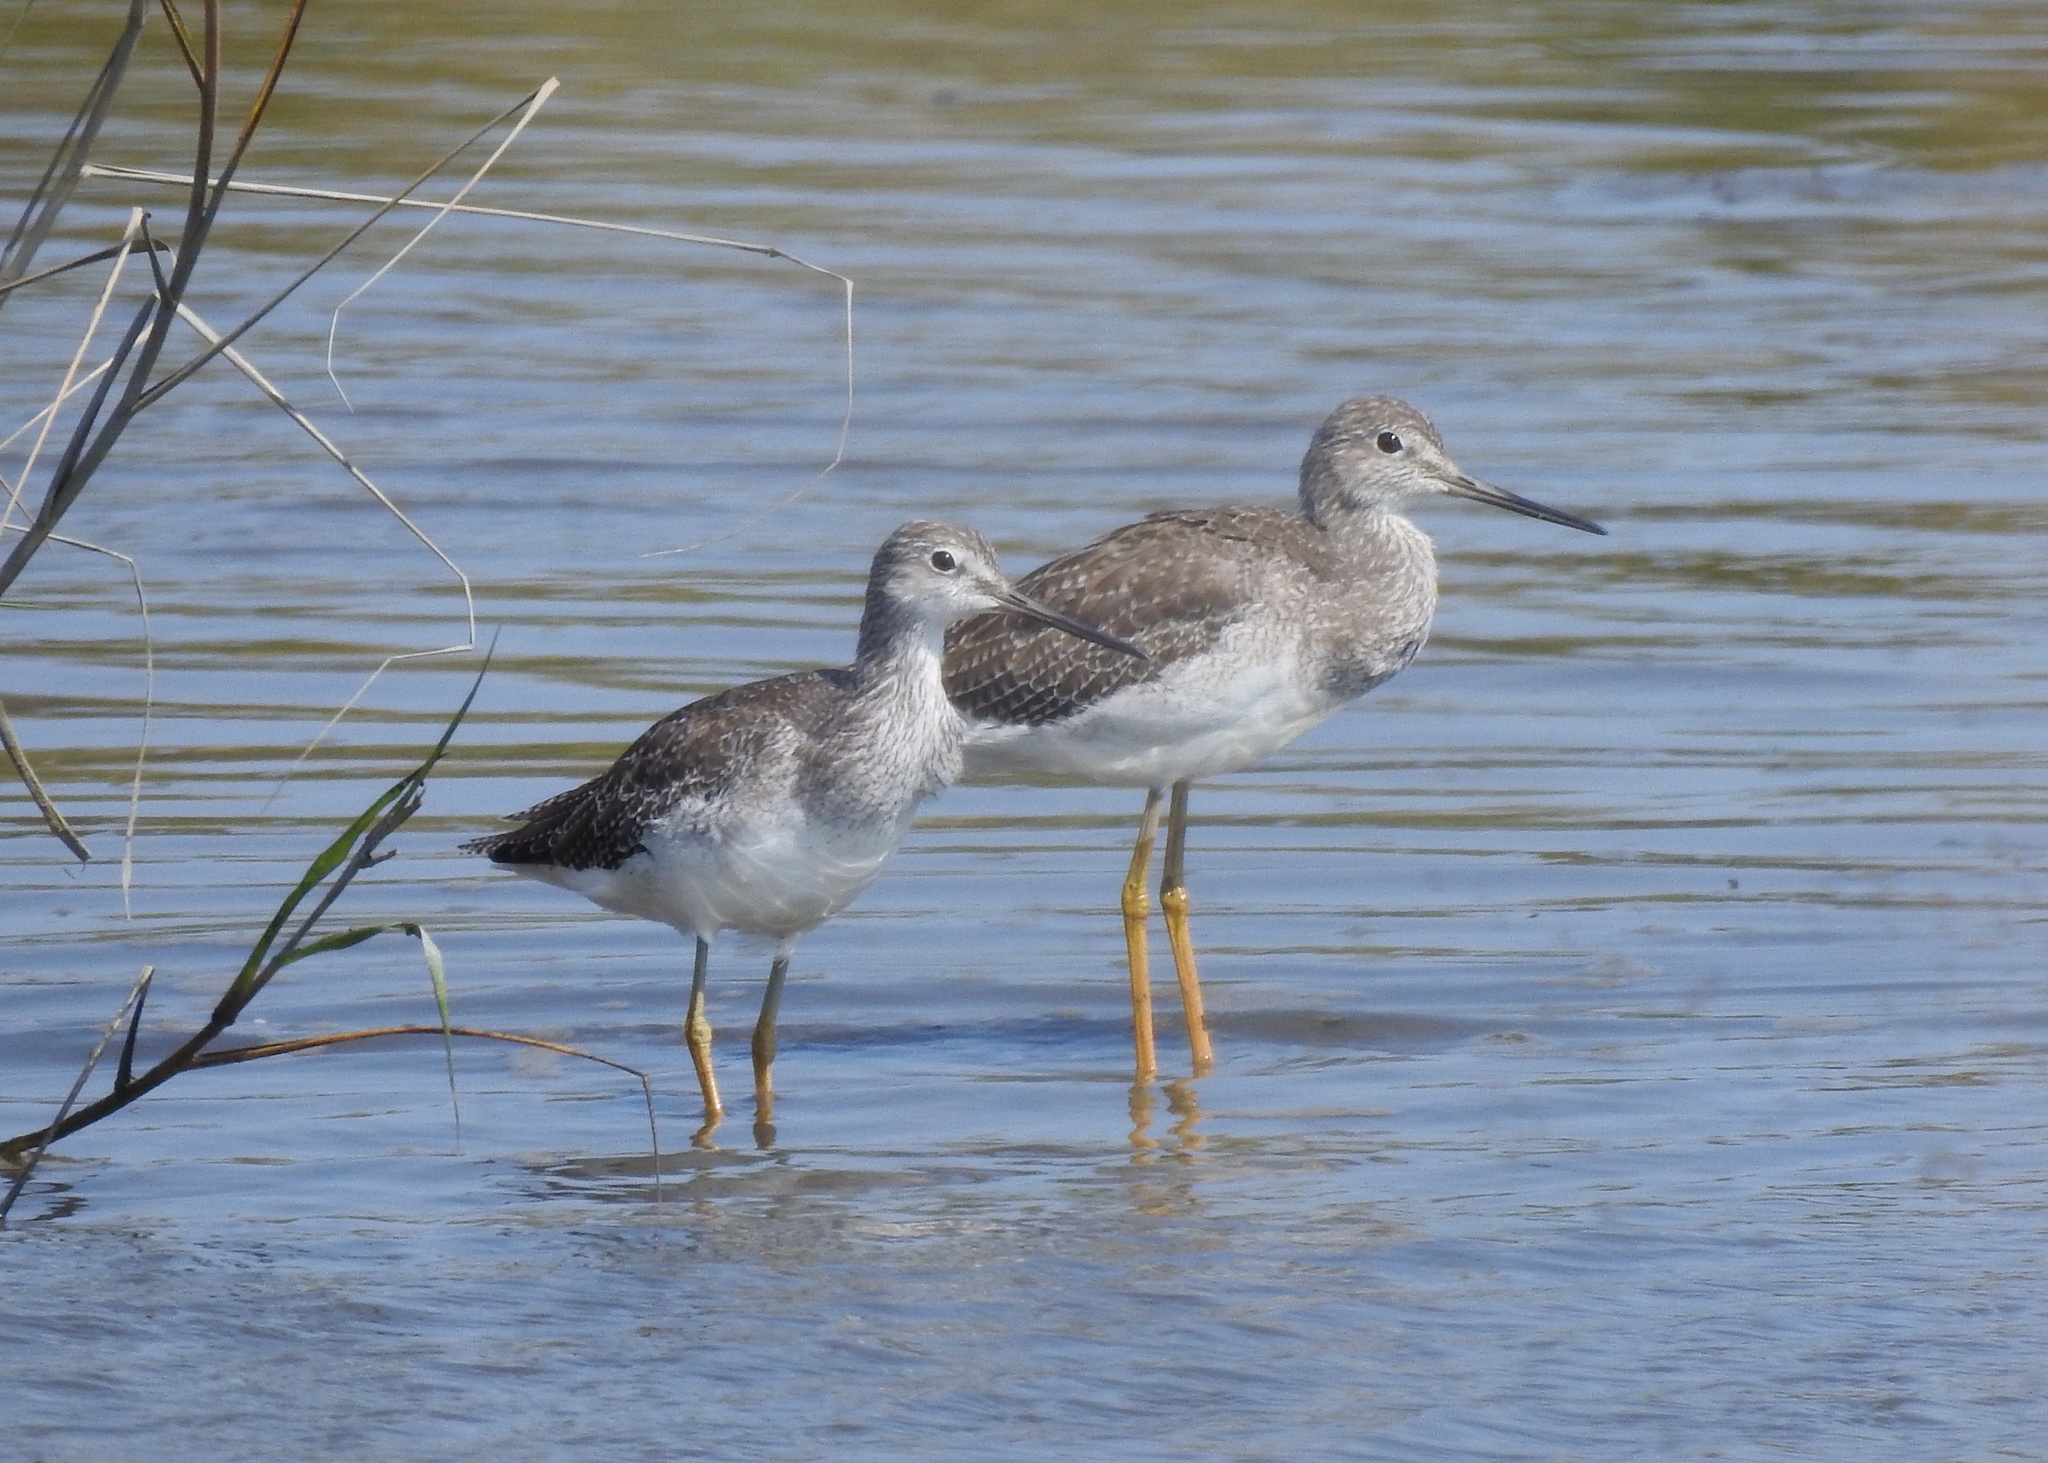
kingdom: Animalia
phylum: Chordata
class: Aves
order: Charadriiformes
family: Scolopacidae
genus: Tringa
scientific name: Tringa melanoleuca
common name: Greater yellowlegs
